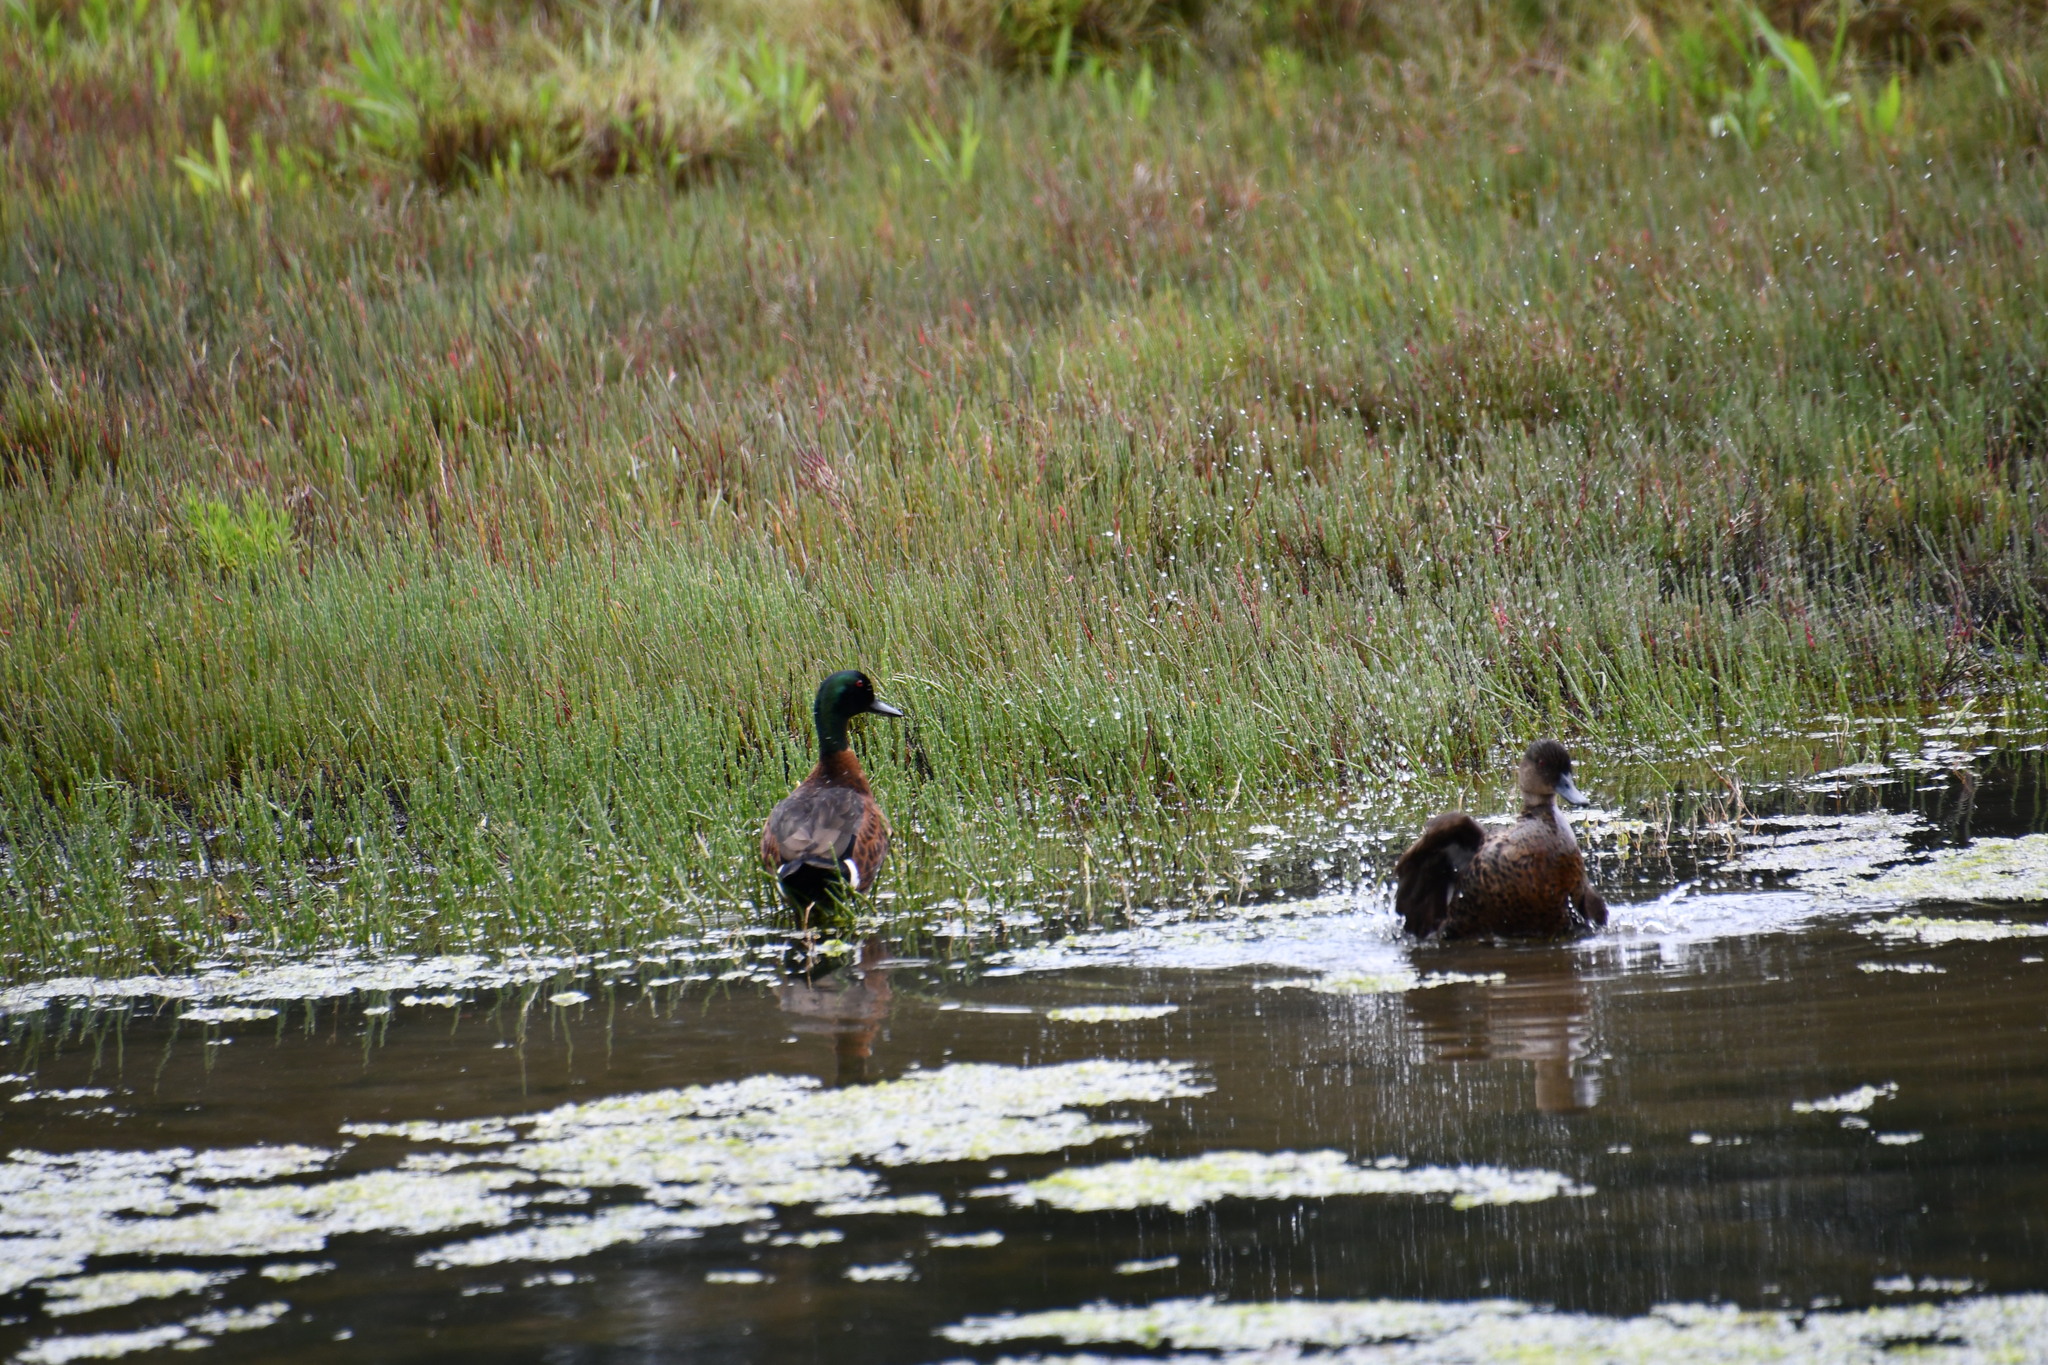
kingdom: Animalia
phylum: Chordata
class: Aves
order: Anseriformes
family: Anatidae
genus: Anas
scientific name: Anas castanea
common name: Chestnut teal
